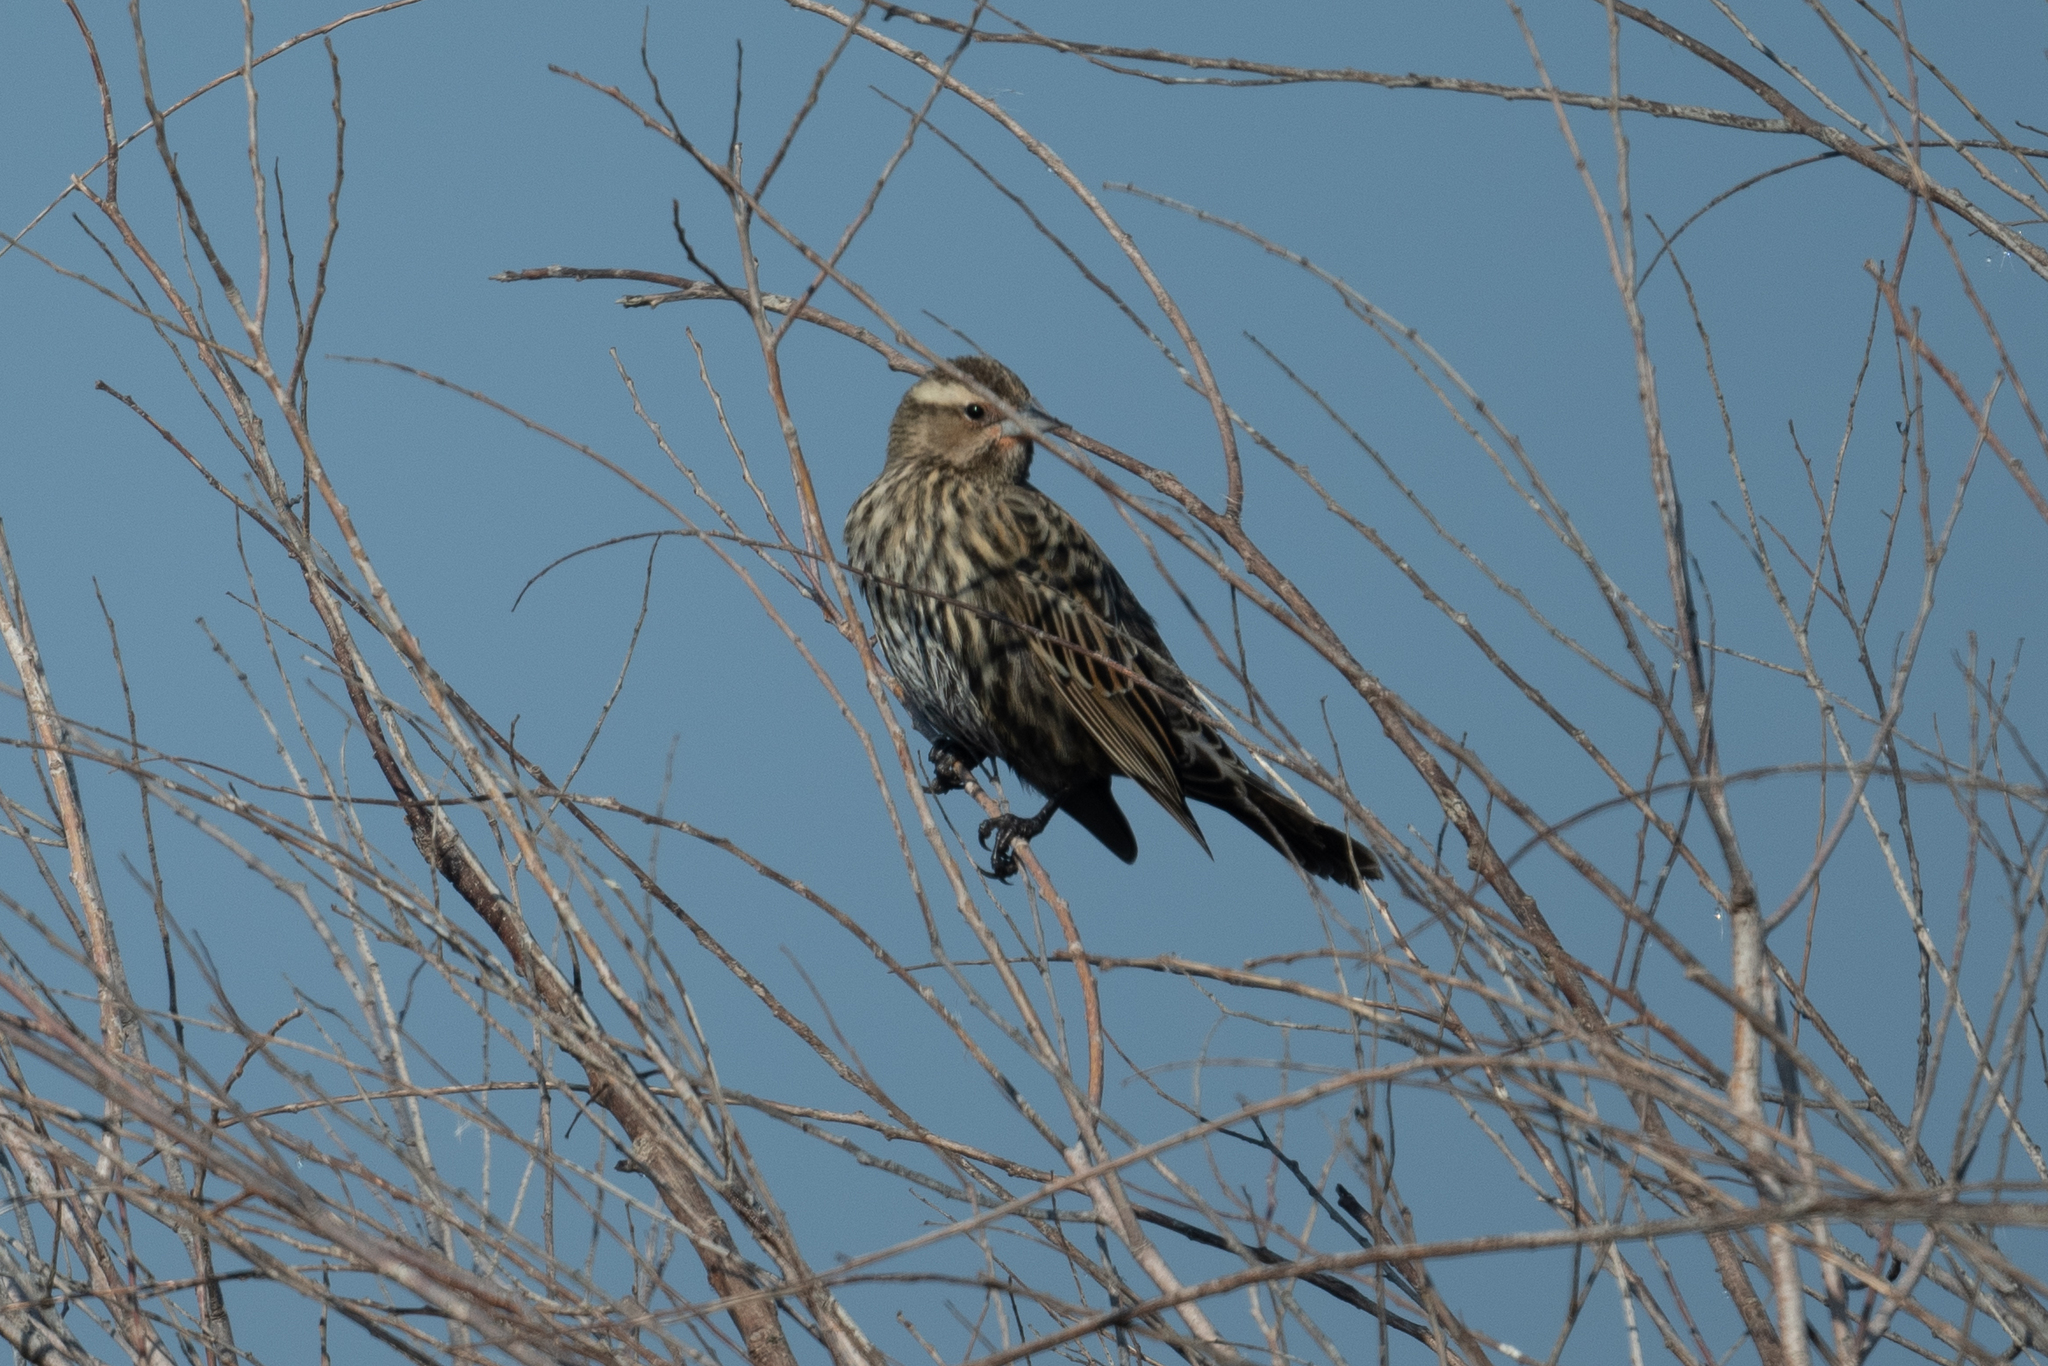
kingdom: Animalia
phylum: Chordata
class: Aves
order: Passeriformes
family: Icteridae
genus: Agelaius
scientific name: Agelaius phoeniceus
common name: Red-winged blackbird
